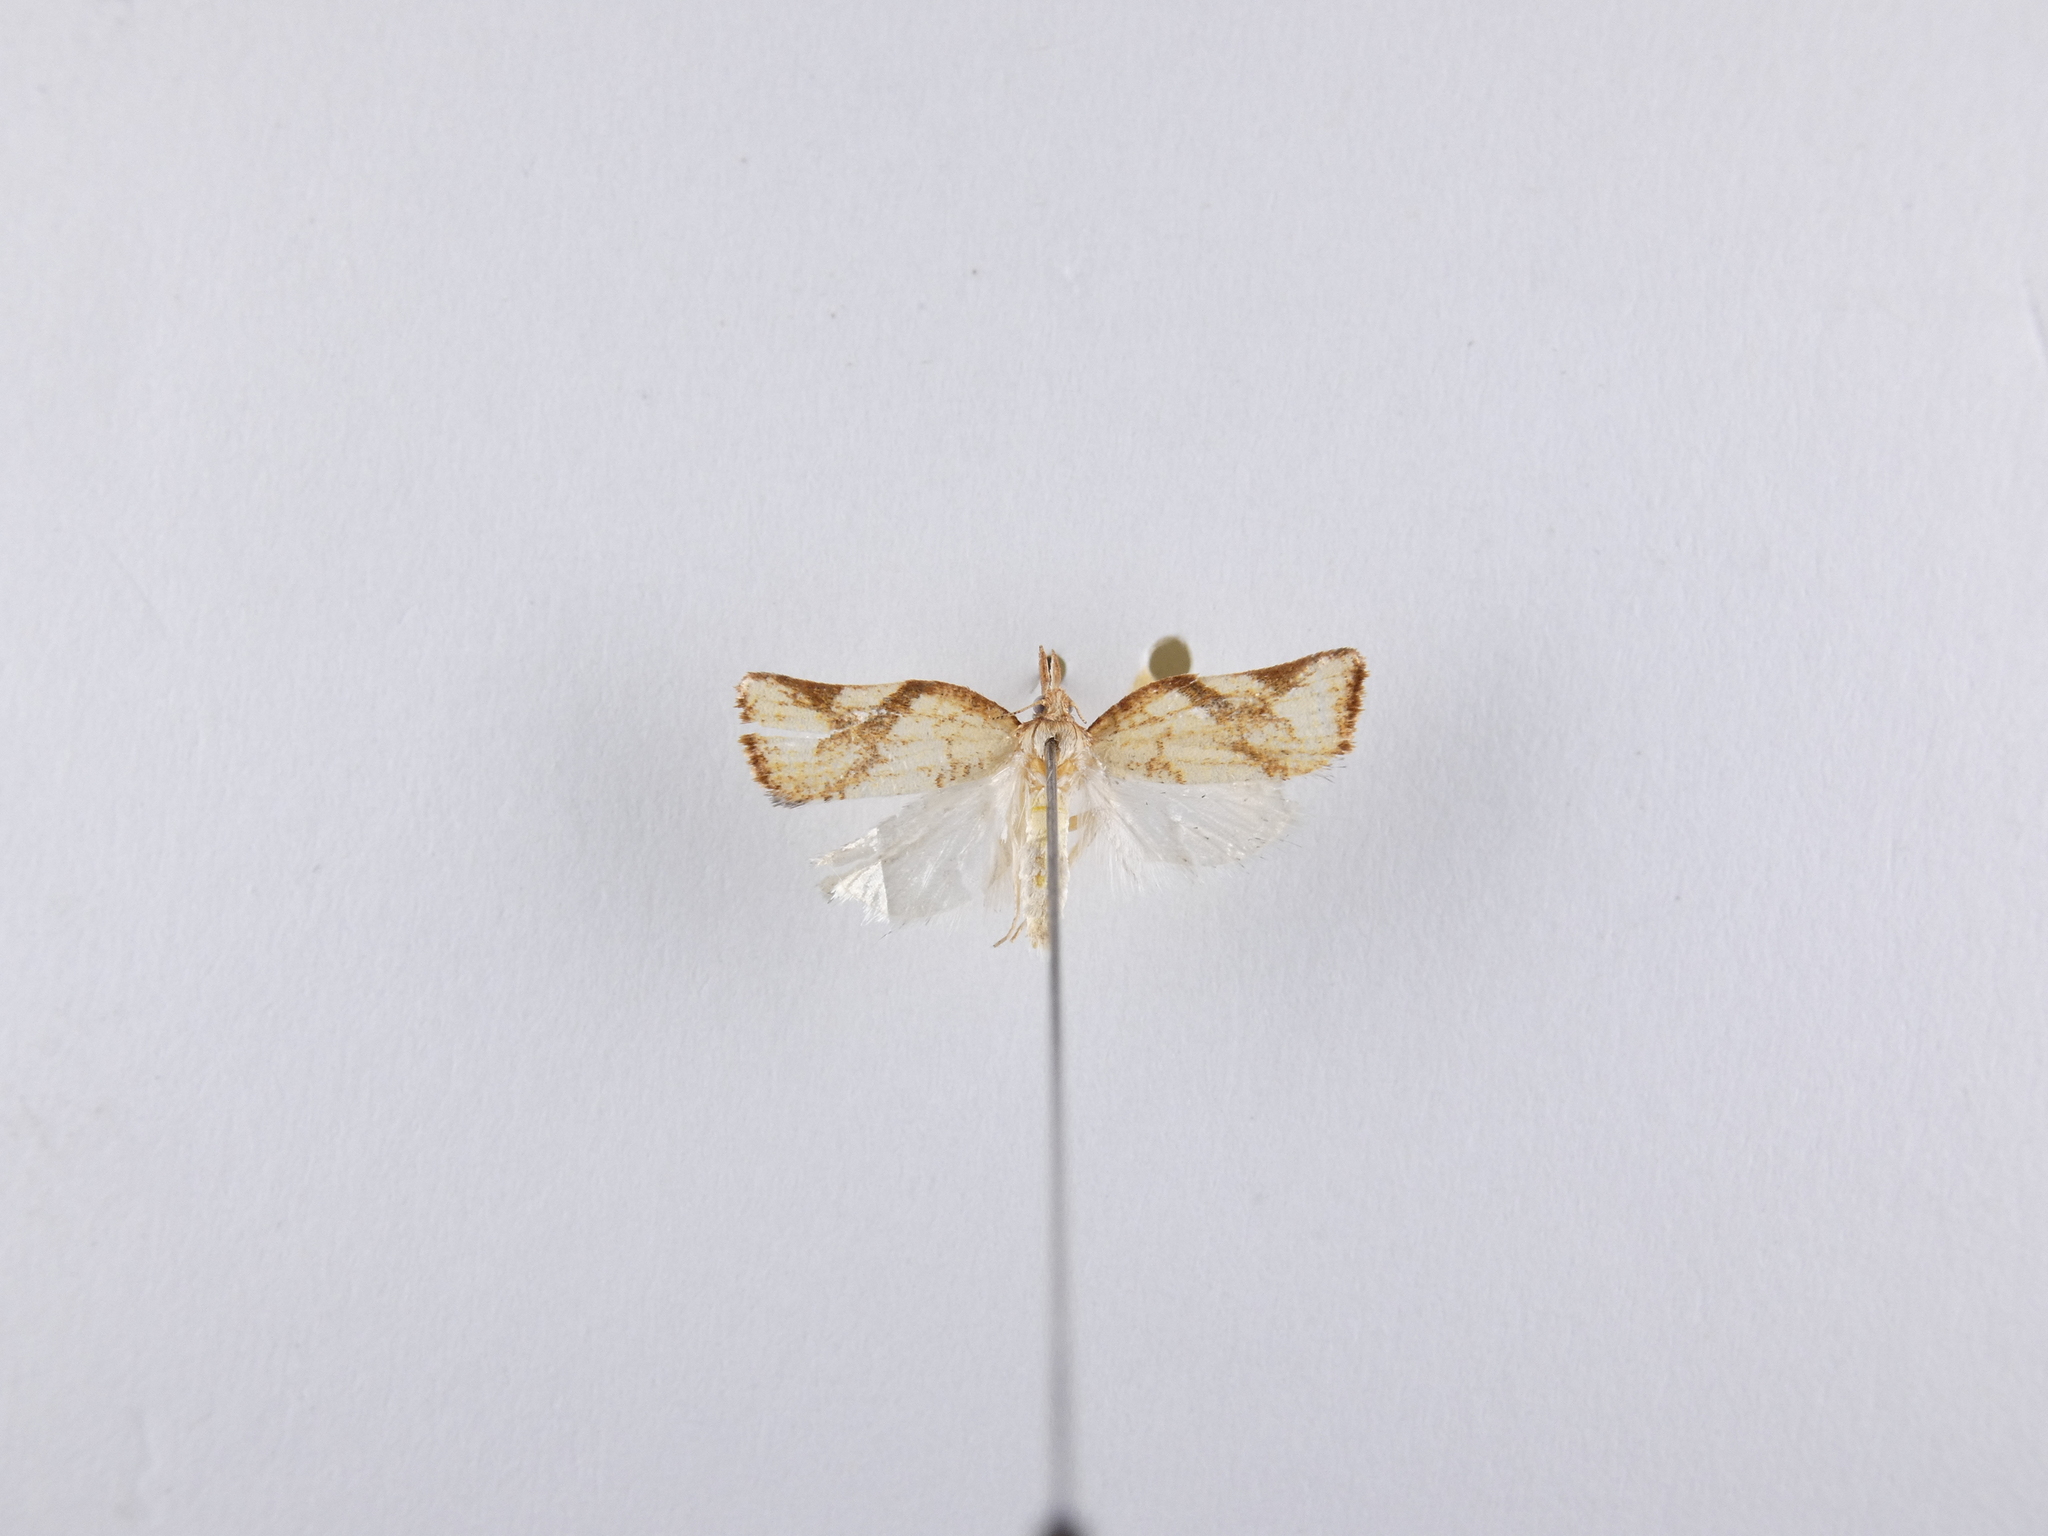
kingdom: Animalia
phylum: Arthropoda
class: Insecta
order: Lepidoptera
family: Tortricidae
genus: Catamacta
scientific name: Catamacta gavisana
